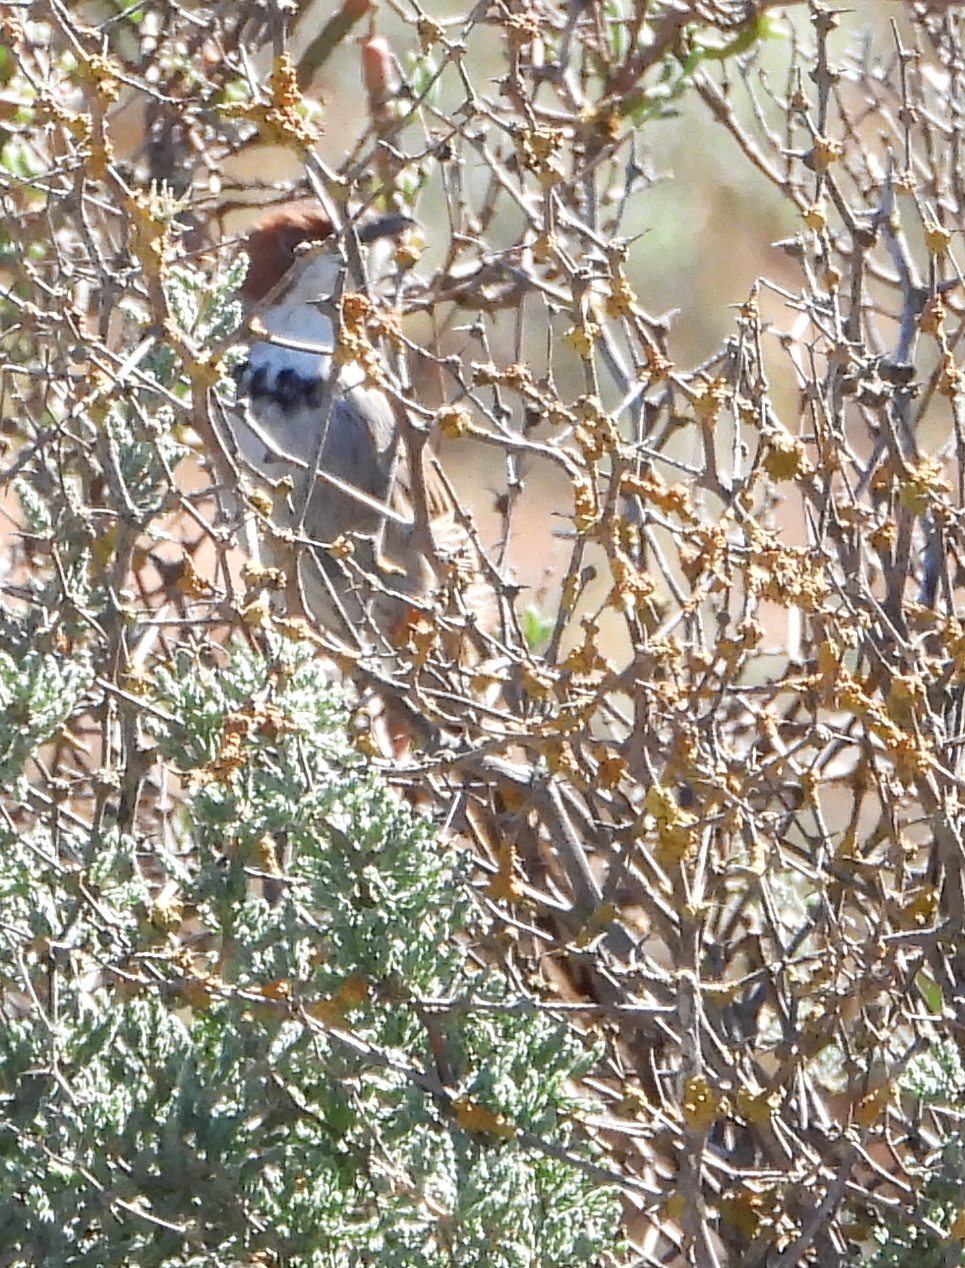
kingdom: Animalia
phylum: Chordata
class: Aves
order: Passeriformes
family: Cisticolidae
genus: Malcorus
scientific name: Malcorus pectoralis
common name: Rufous-eared warbler
